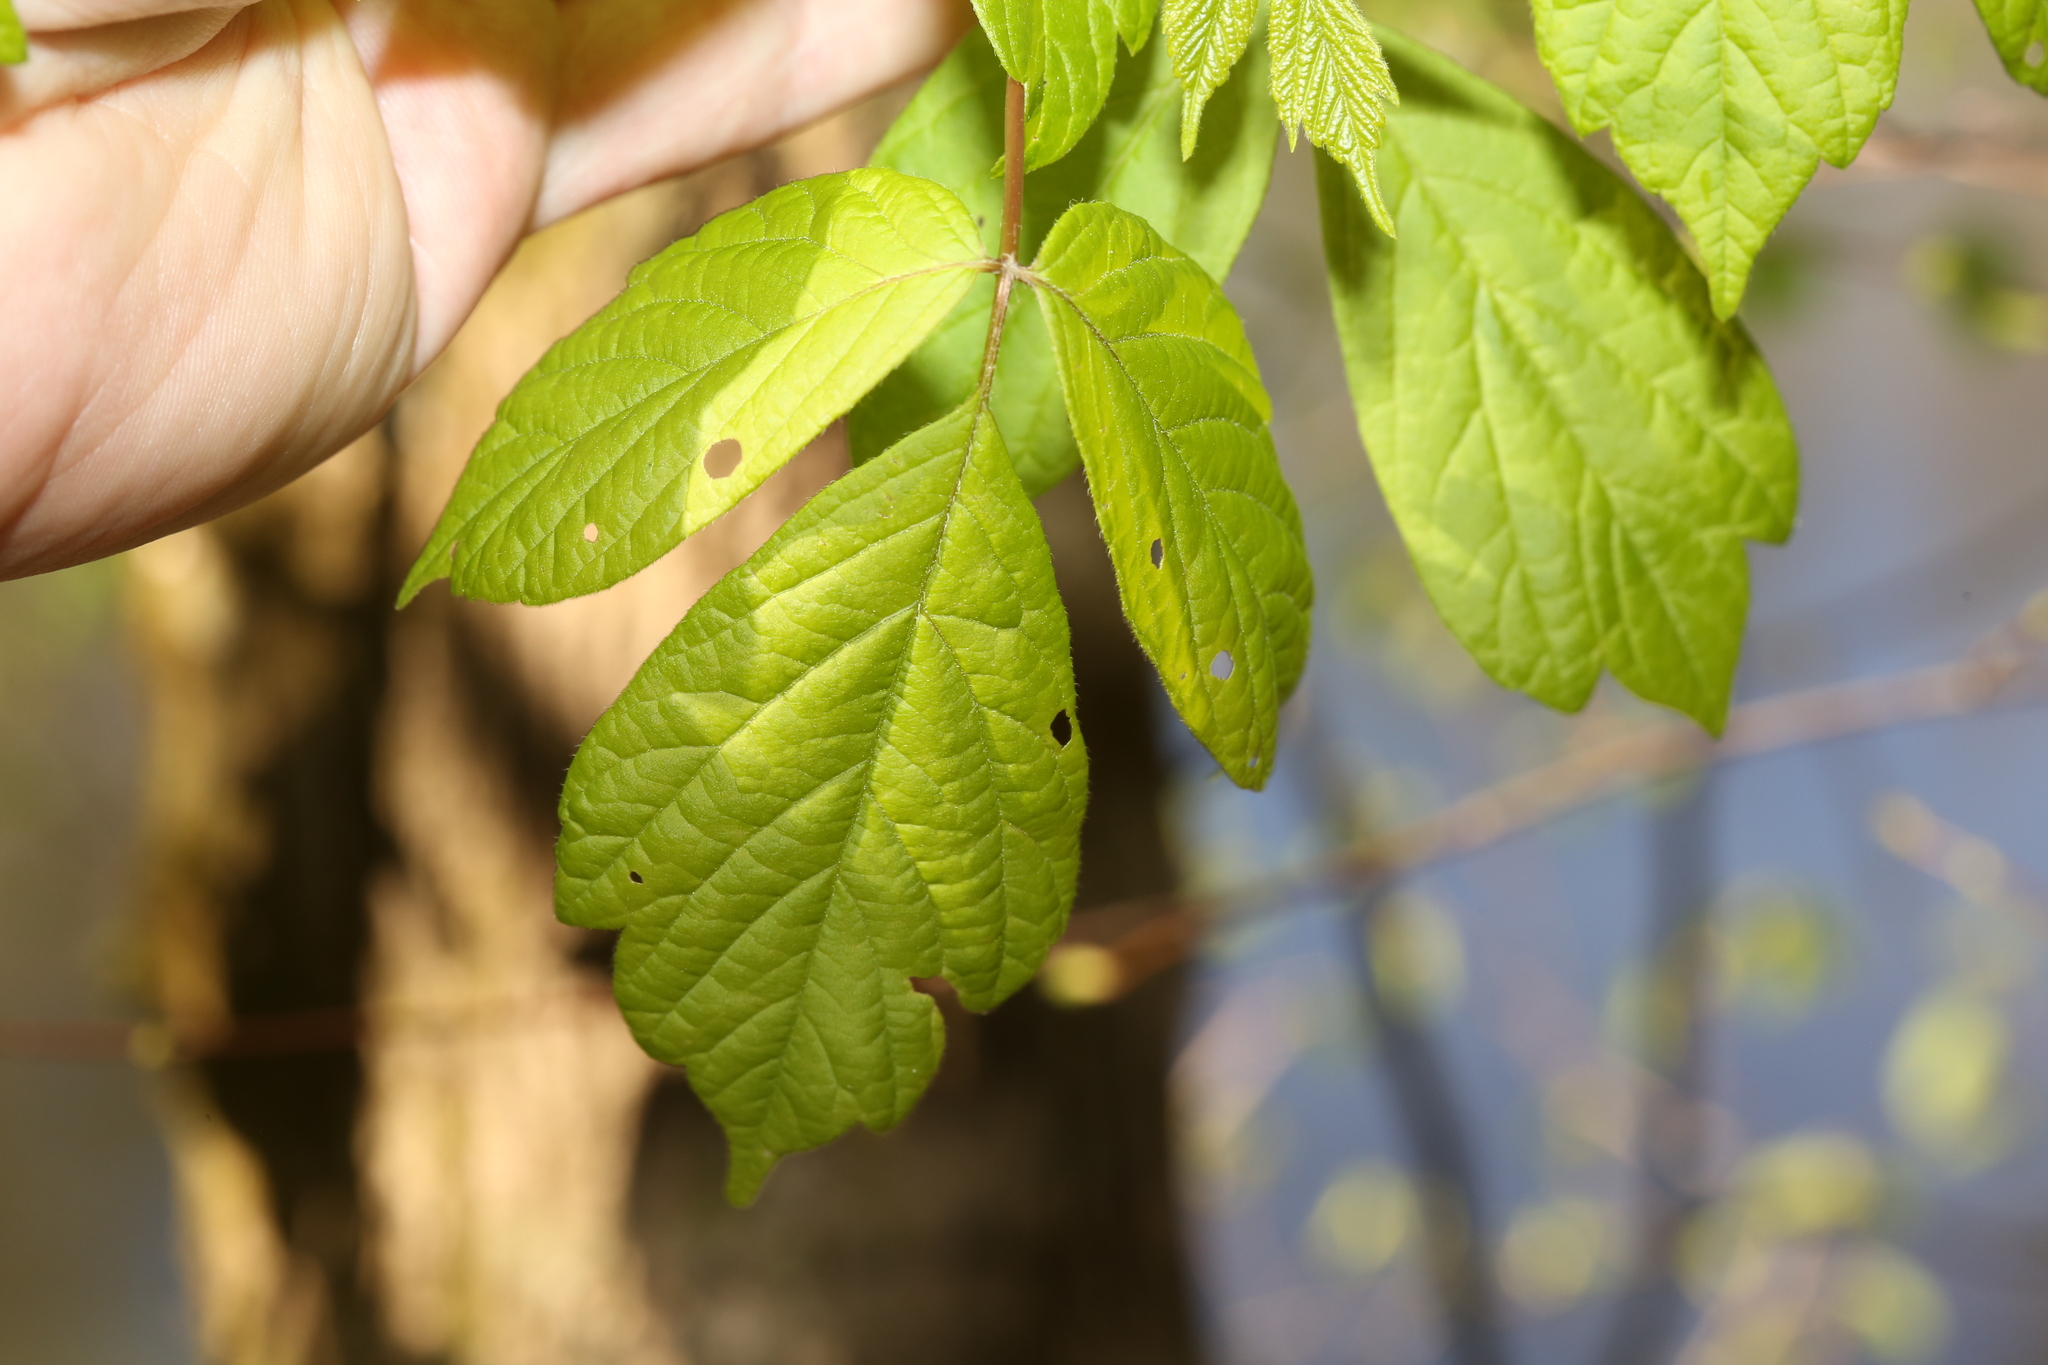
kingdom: Plantae
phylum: Tracheophyta
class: Magnoliopsida
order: Sapindales
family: Sapindaceae
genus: Acer
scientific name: Acer negundo
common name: Ashleaf maple
